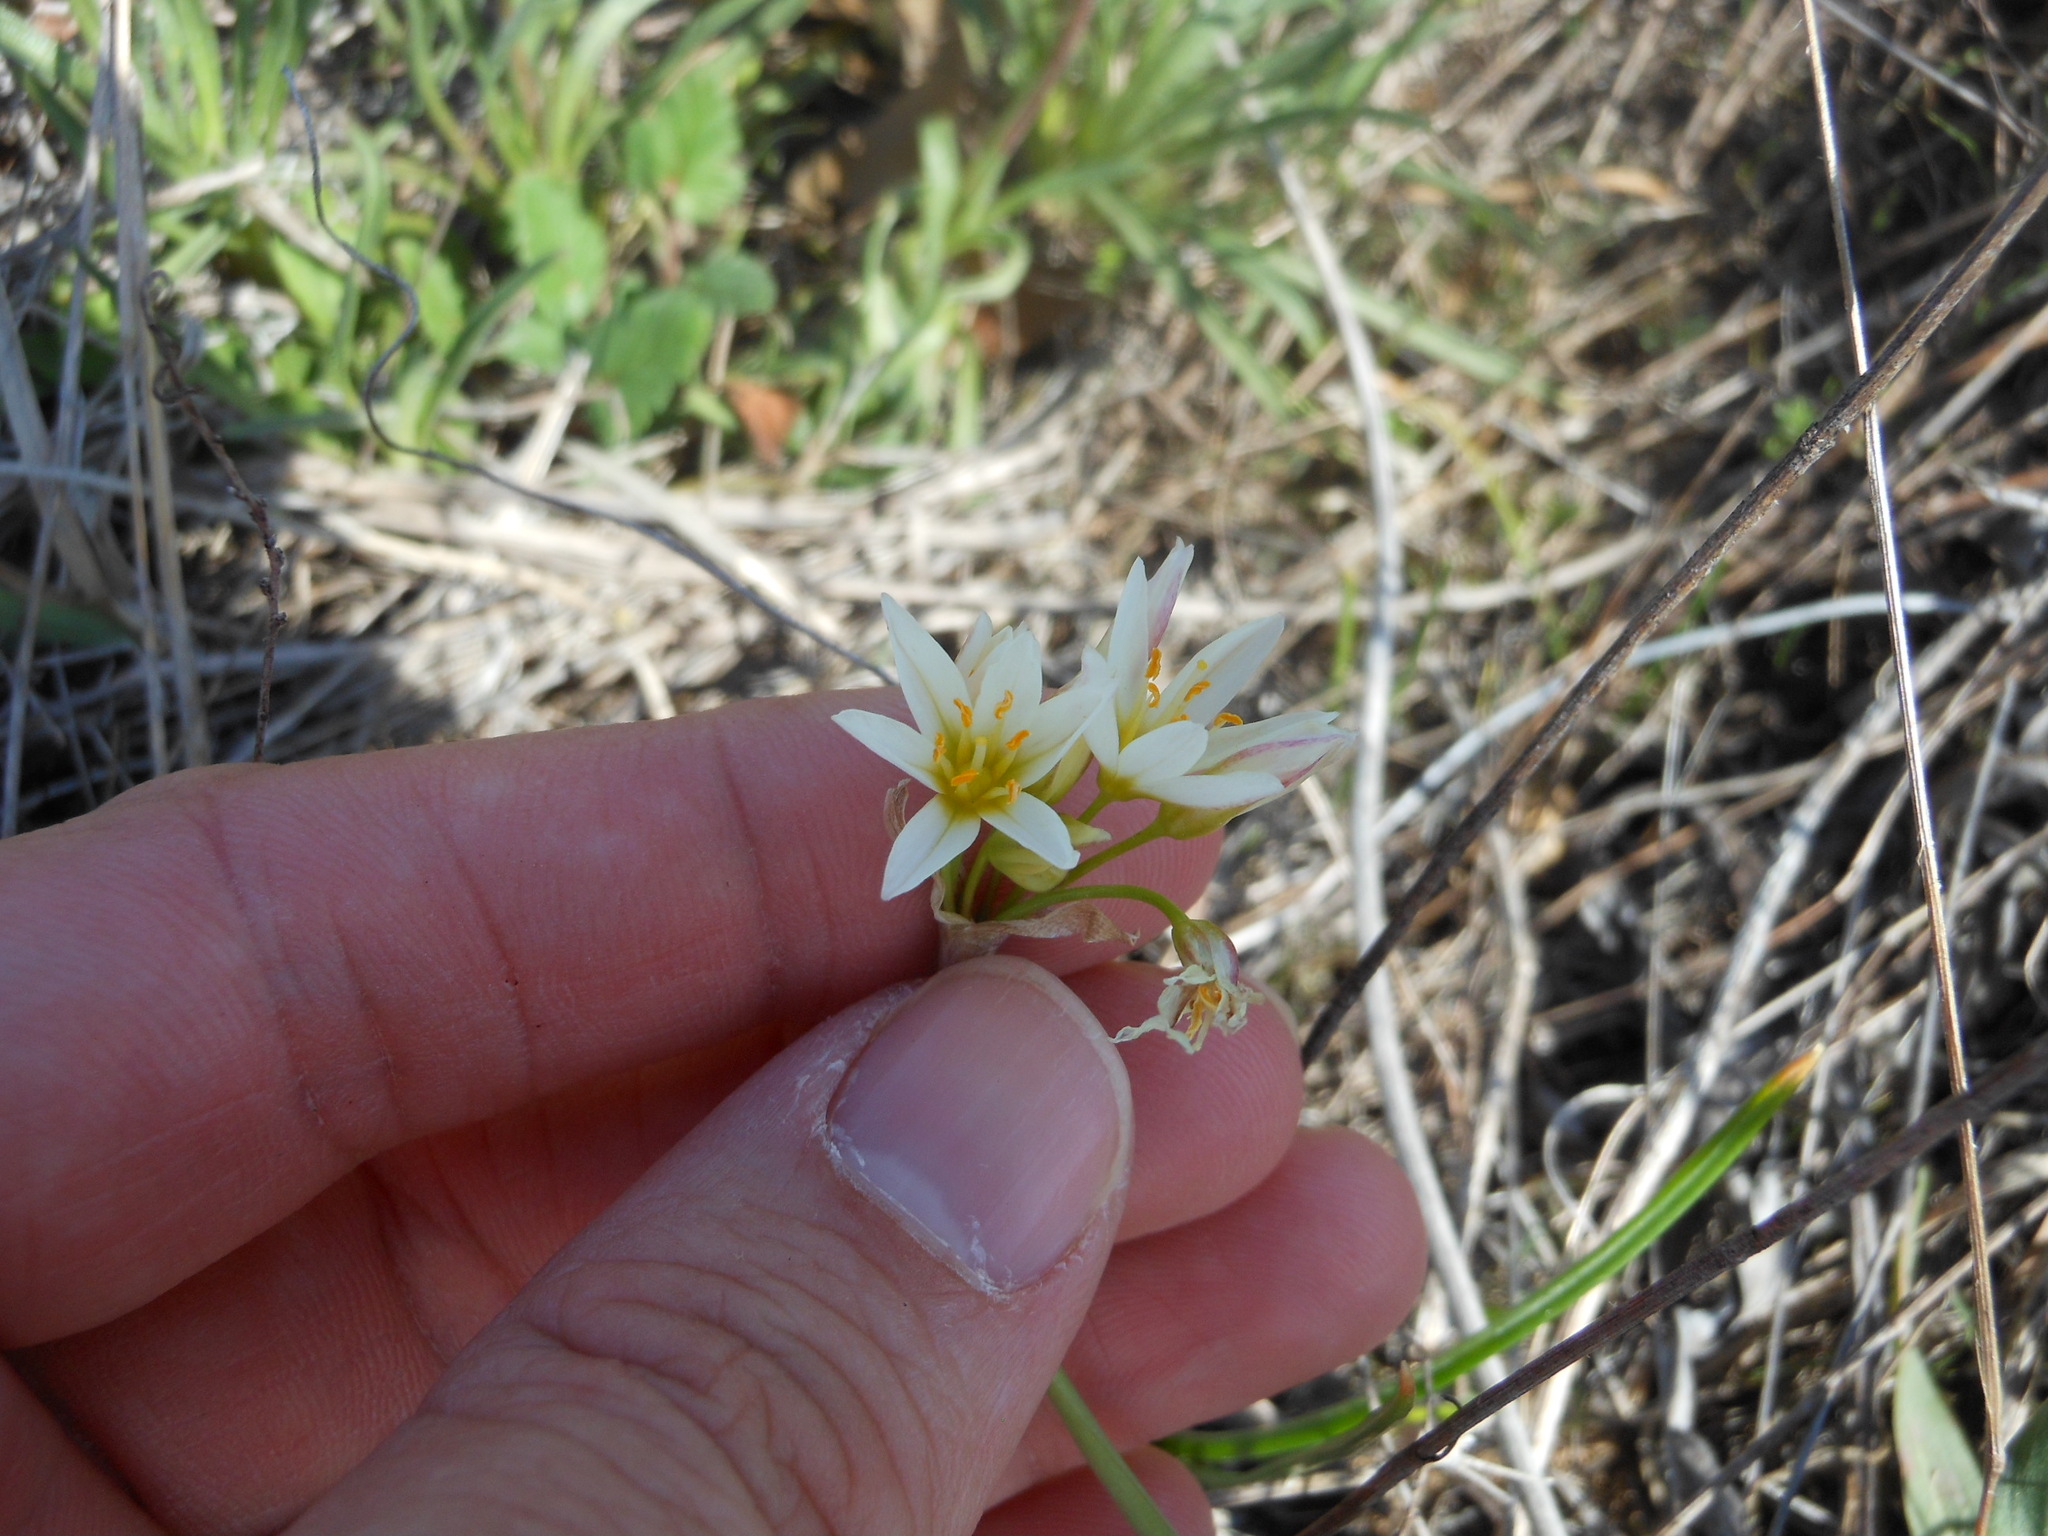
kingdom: Plantae
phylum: Tracheophyta
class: Liliopsida
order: Asparagales
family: Amaryllidaceae
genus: Nothoscordum
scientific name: Nothoscordum bivalve
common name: Crow-poison
